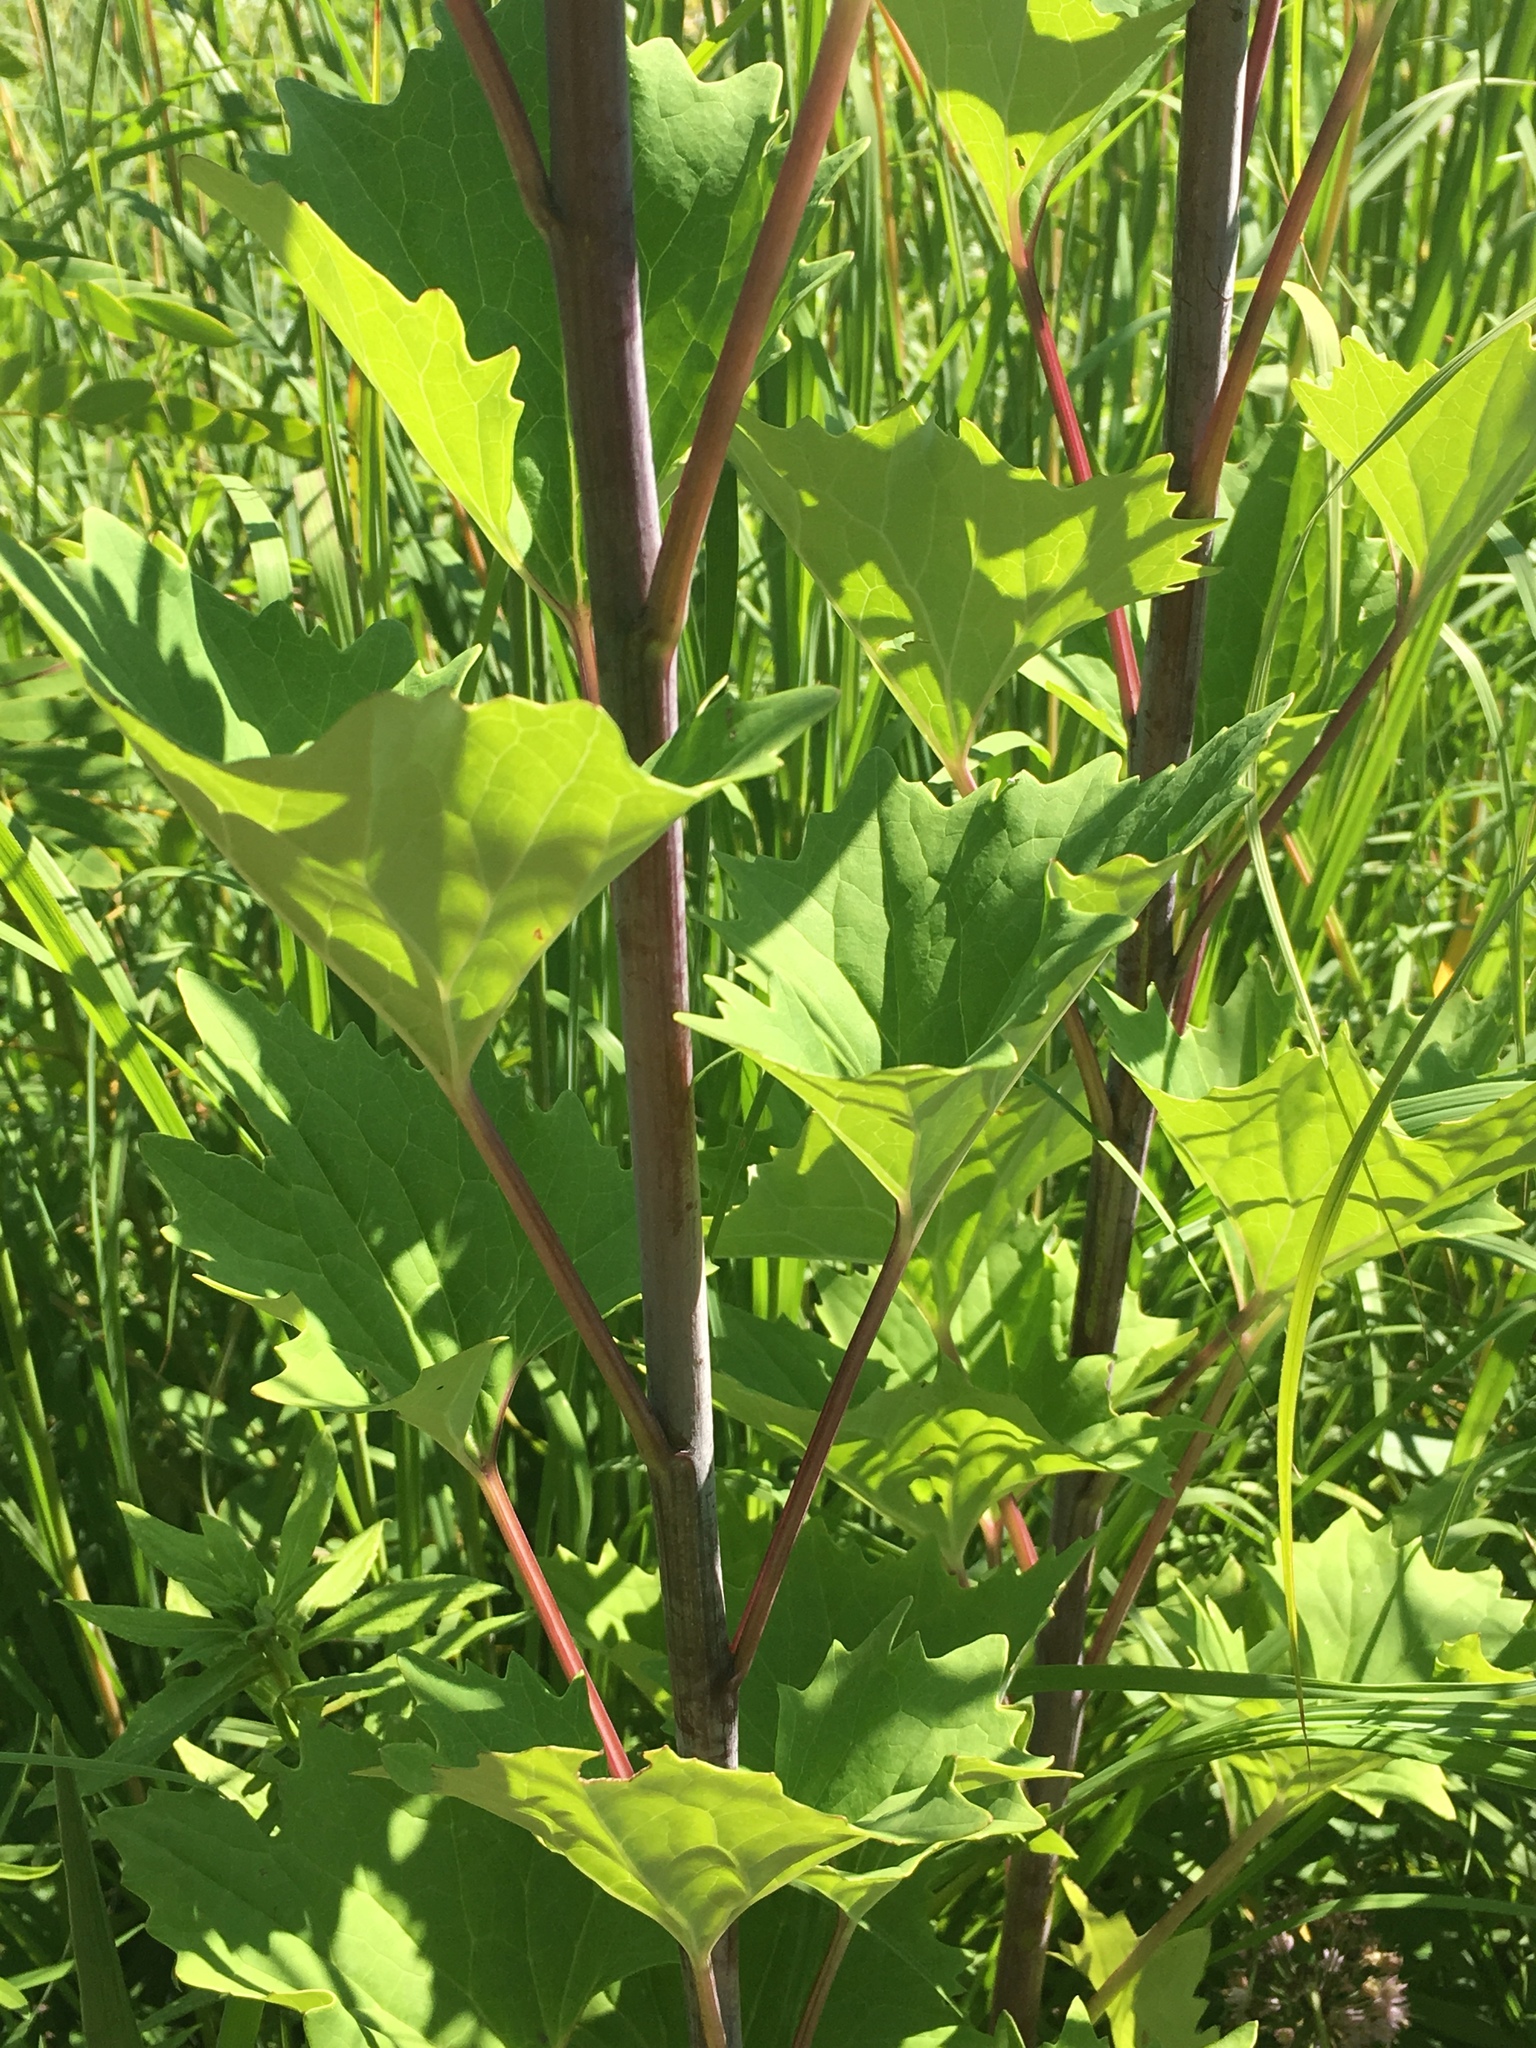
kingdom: Plantae
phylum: Tracheophyta
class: Magnoliopsida
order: Asterales
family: Asteraceae
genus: Arnoglossum
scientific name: Arnoglossum atriplicifolium
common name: Pale indian-plantain
